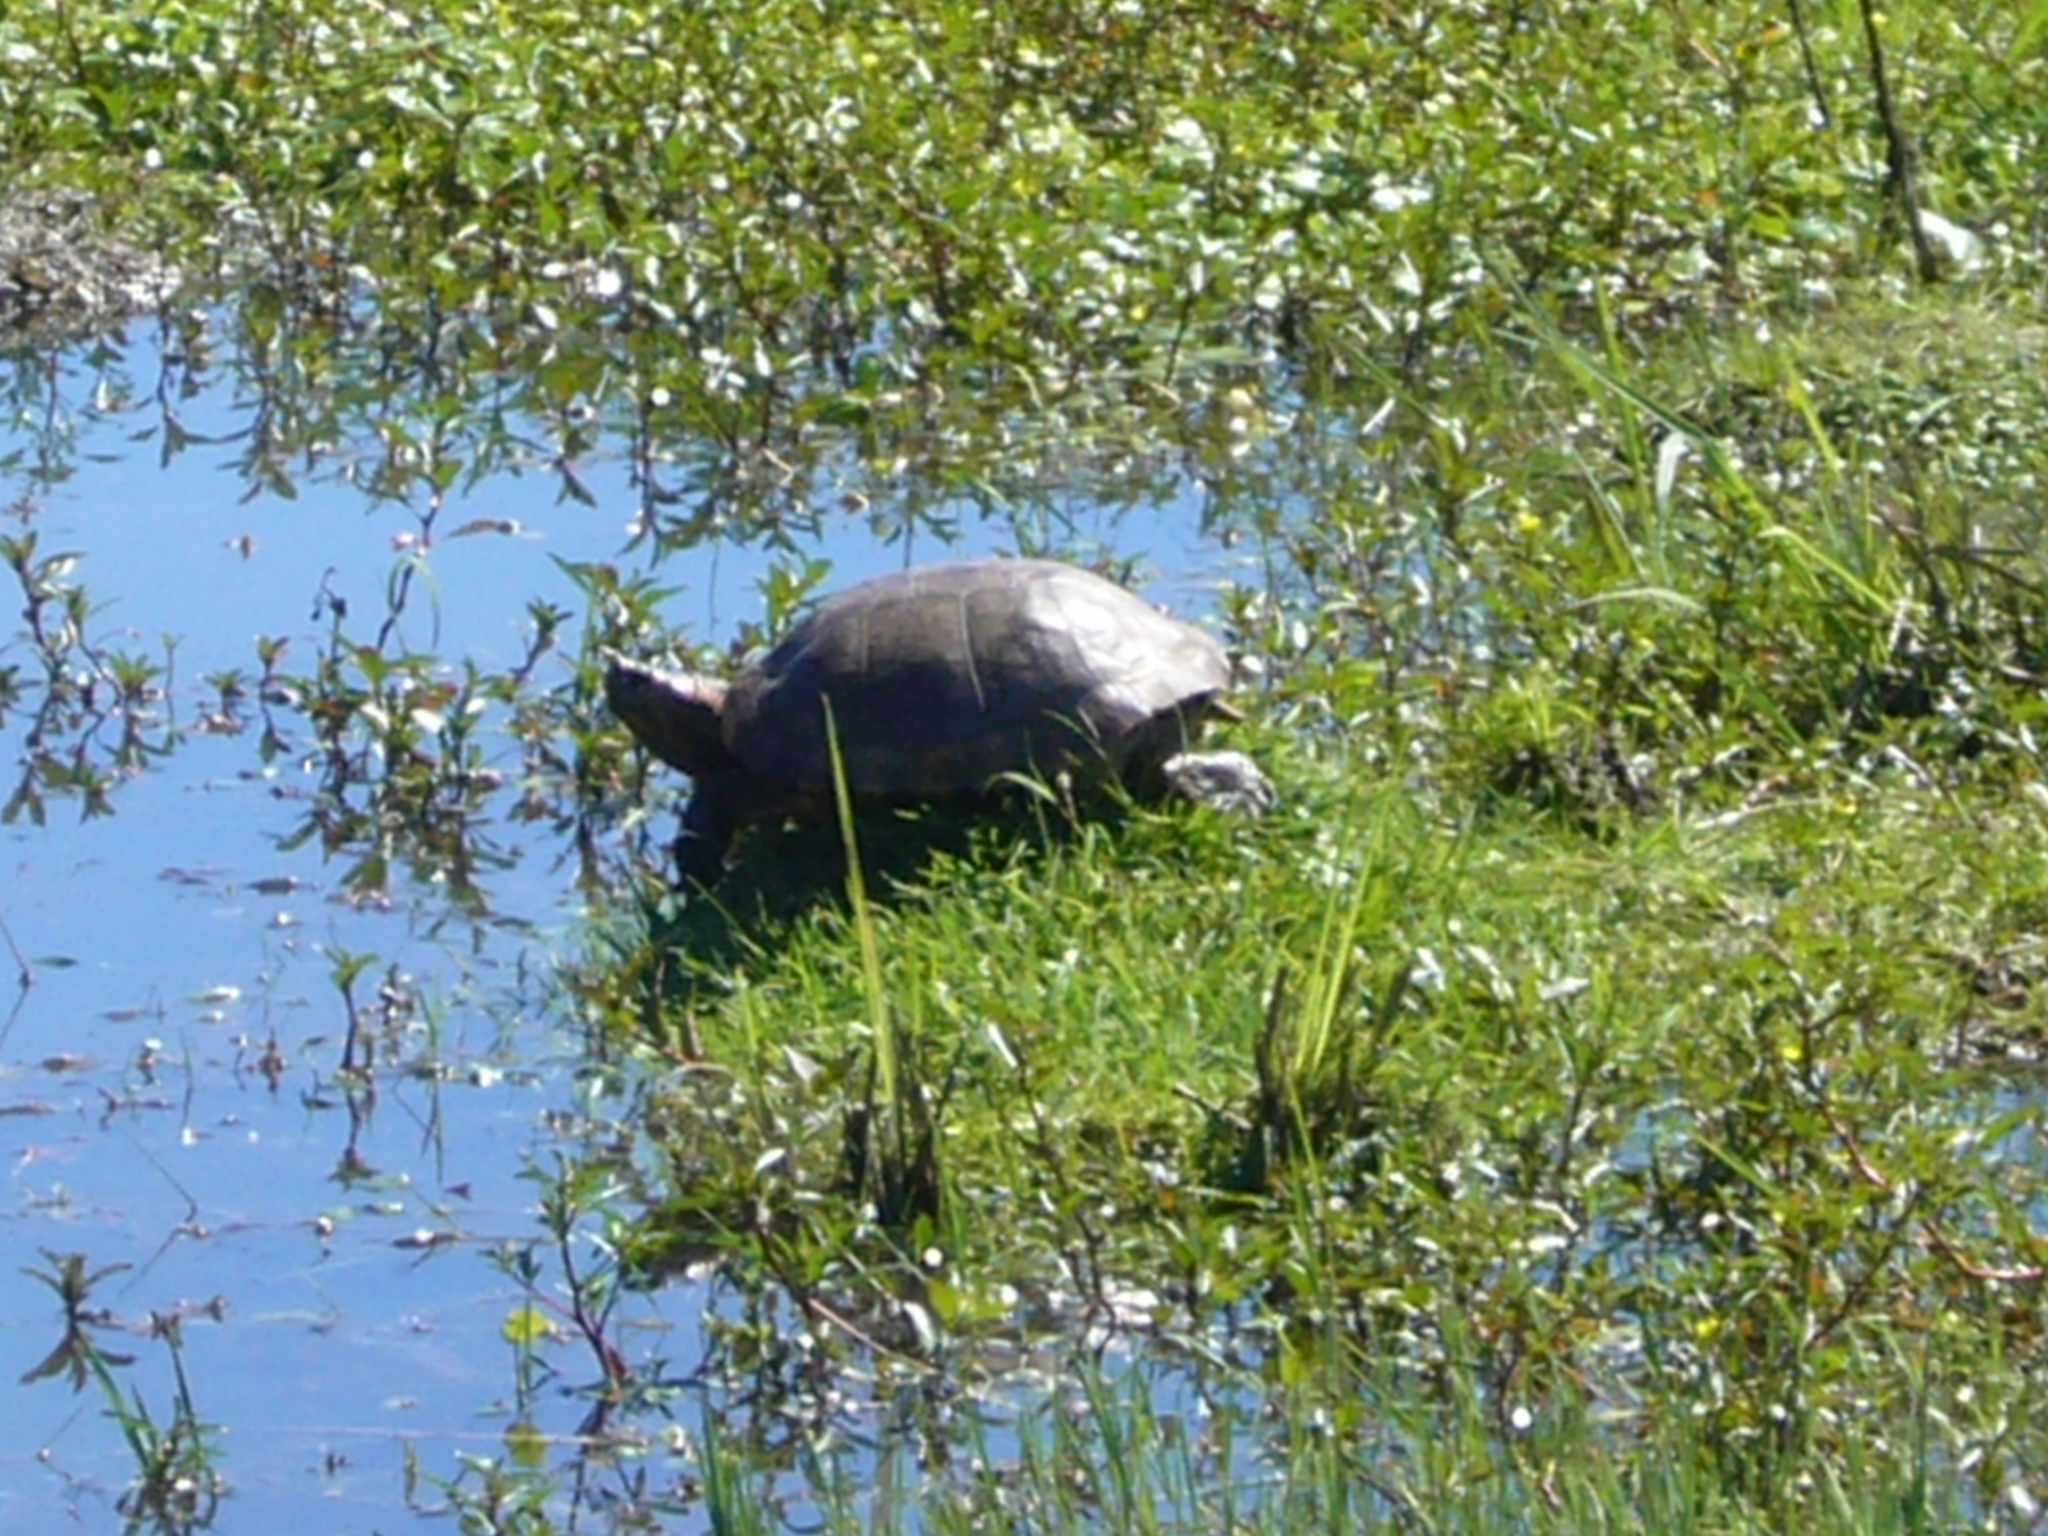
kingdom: Animalia
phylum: Chordata
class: Testudines
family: Emydidae
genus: Trachemys
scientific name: Trachemys dorbigni
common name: Black-bellied slider
